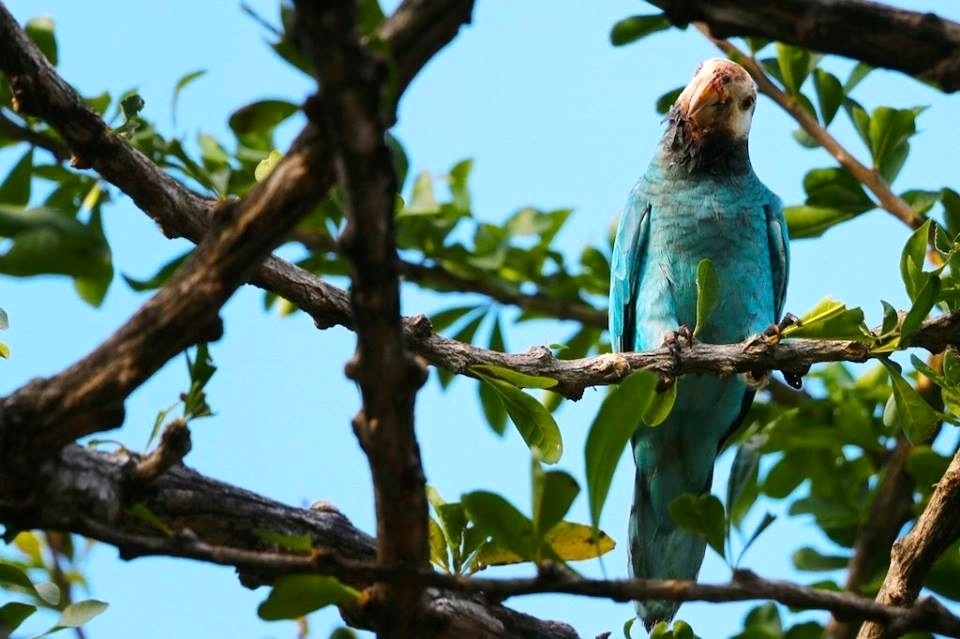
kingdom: Animalia
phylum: Chordata
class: Aves
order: Psittaciformes
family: Psittacidae
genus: Amazona
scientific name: Amazona barbadensis
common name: Yellow-shouldered amazon
